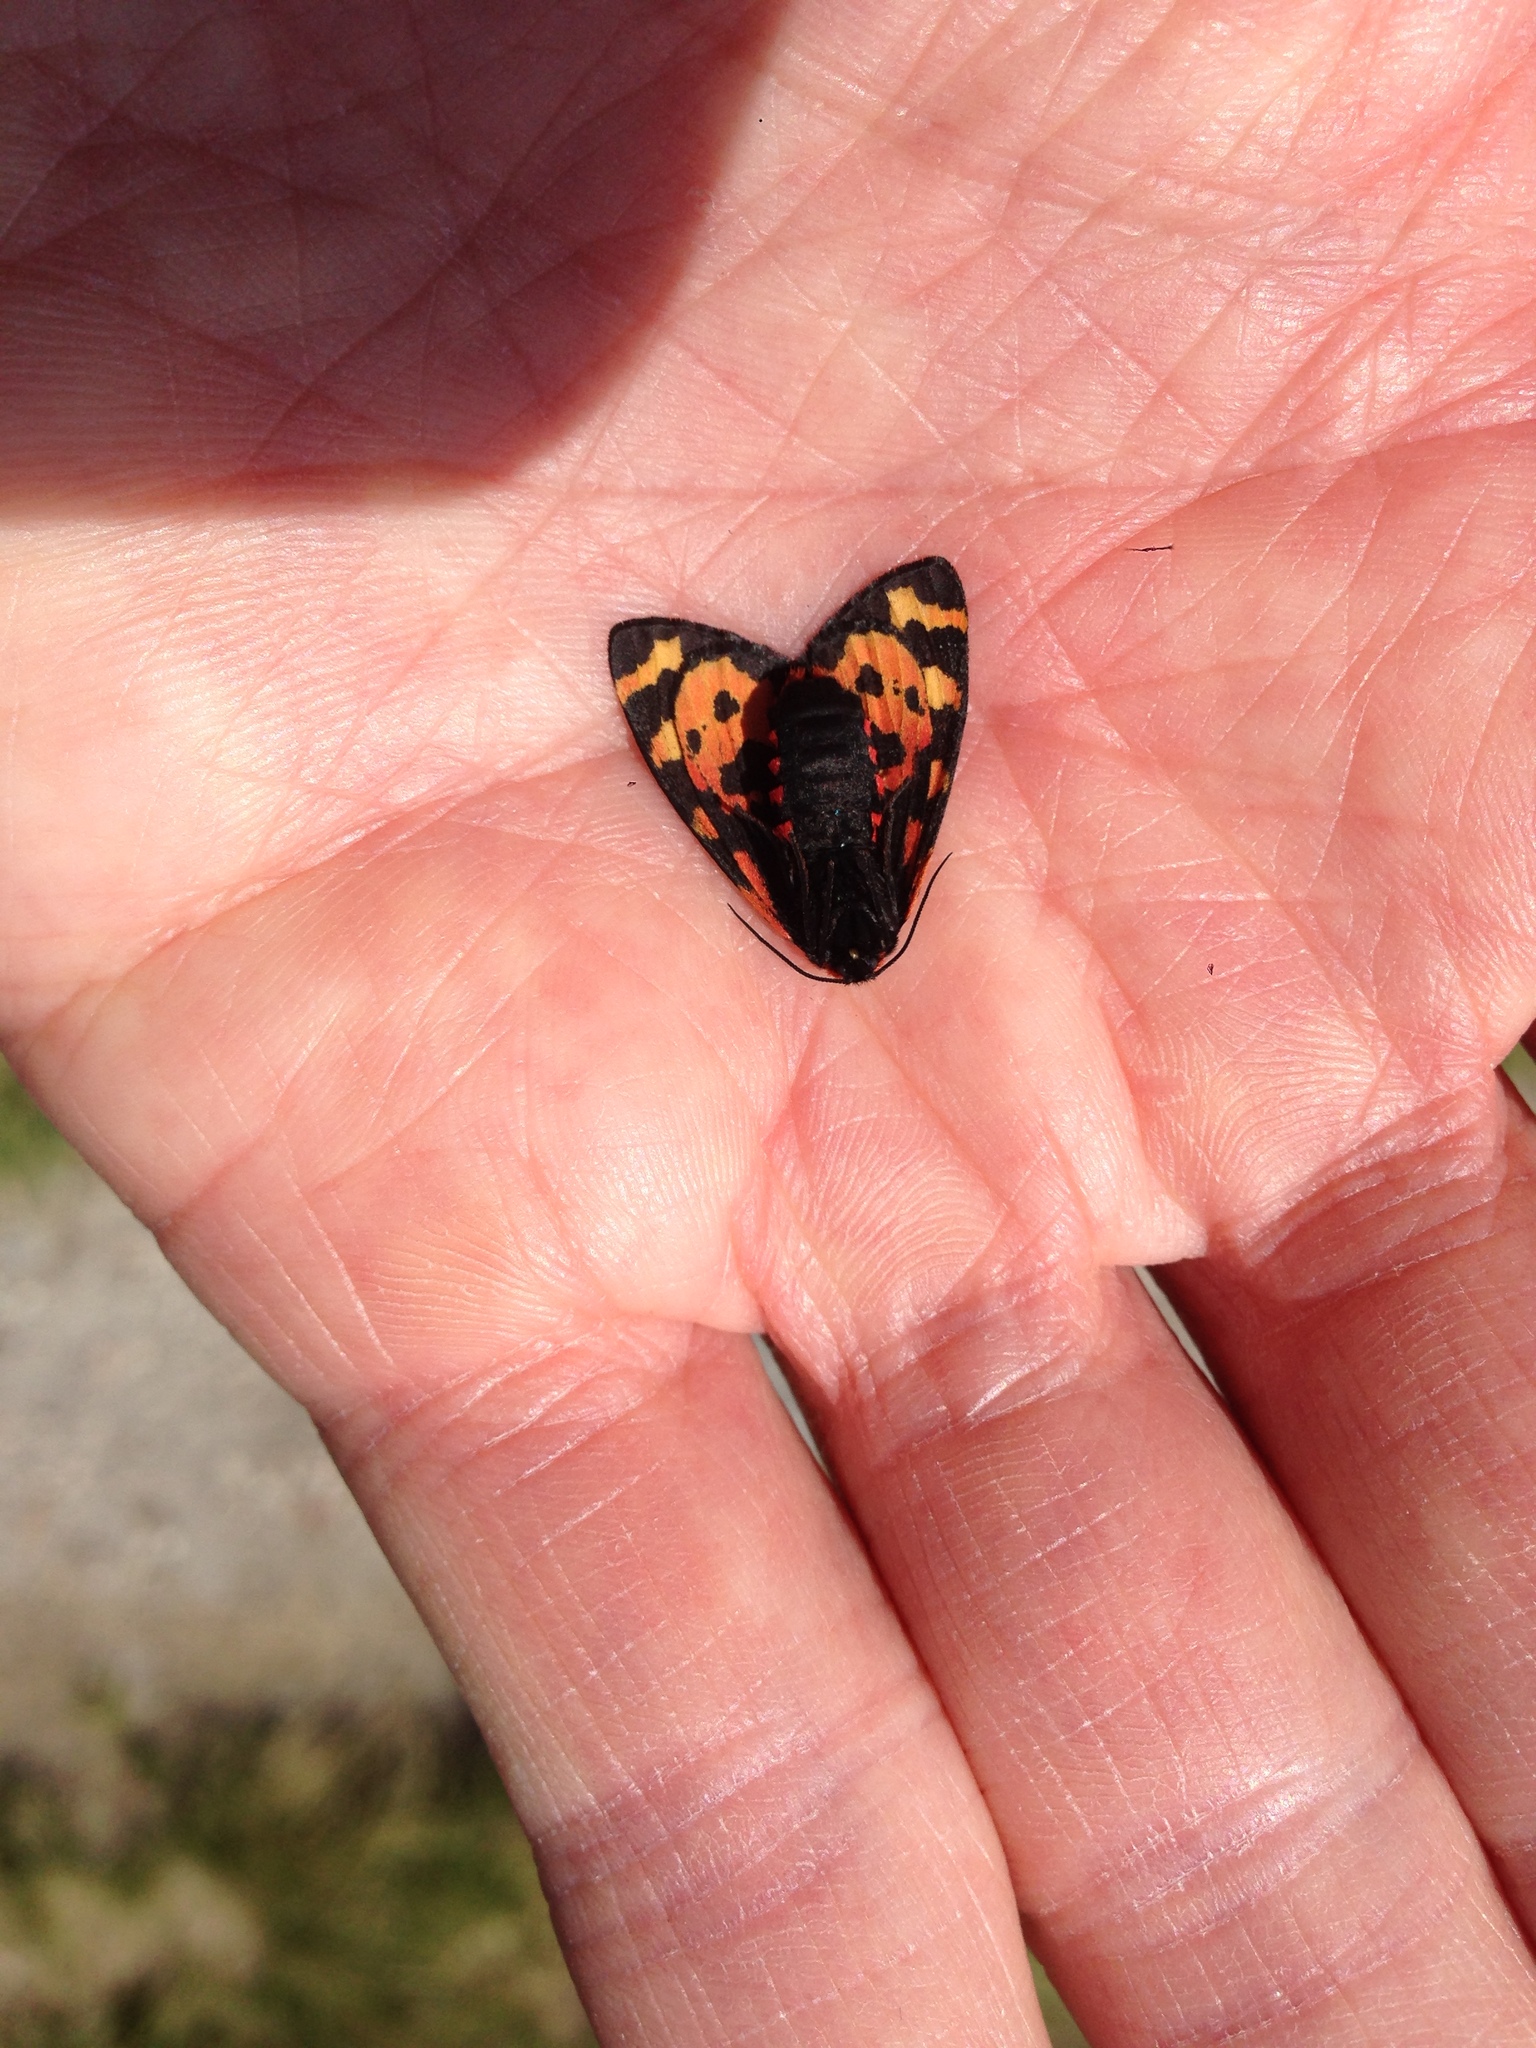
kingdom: Animalia
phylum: Arthropoda
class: Insecta
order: Lepidoptera
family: Erebidae
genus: Parasemia
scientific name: Parasemia plantaginis
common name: Wood tiger
